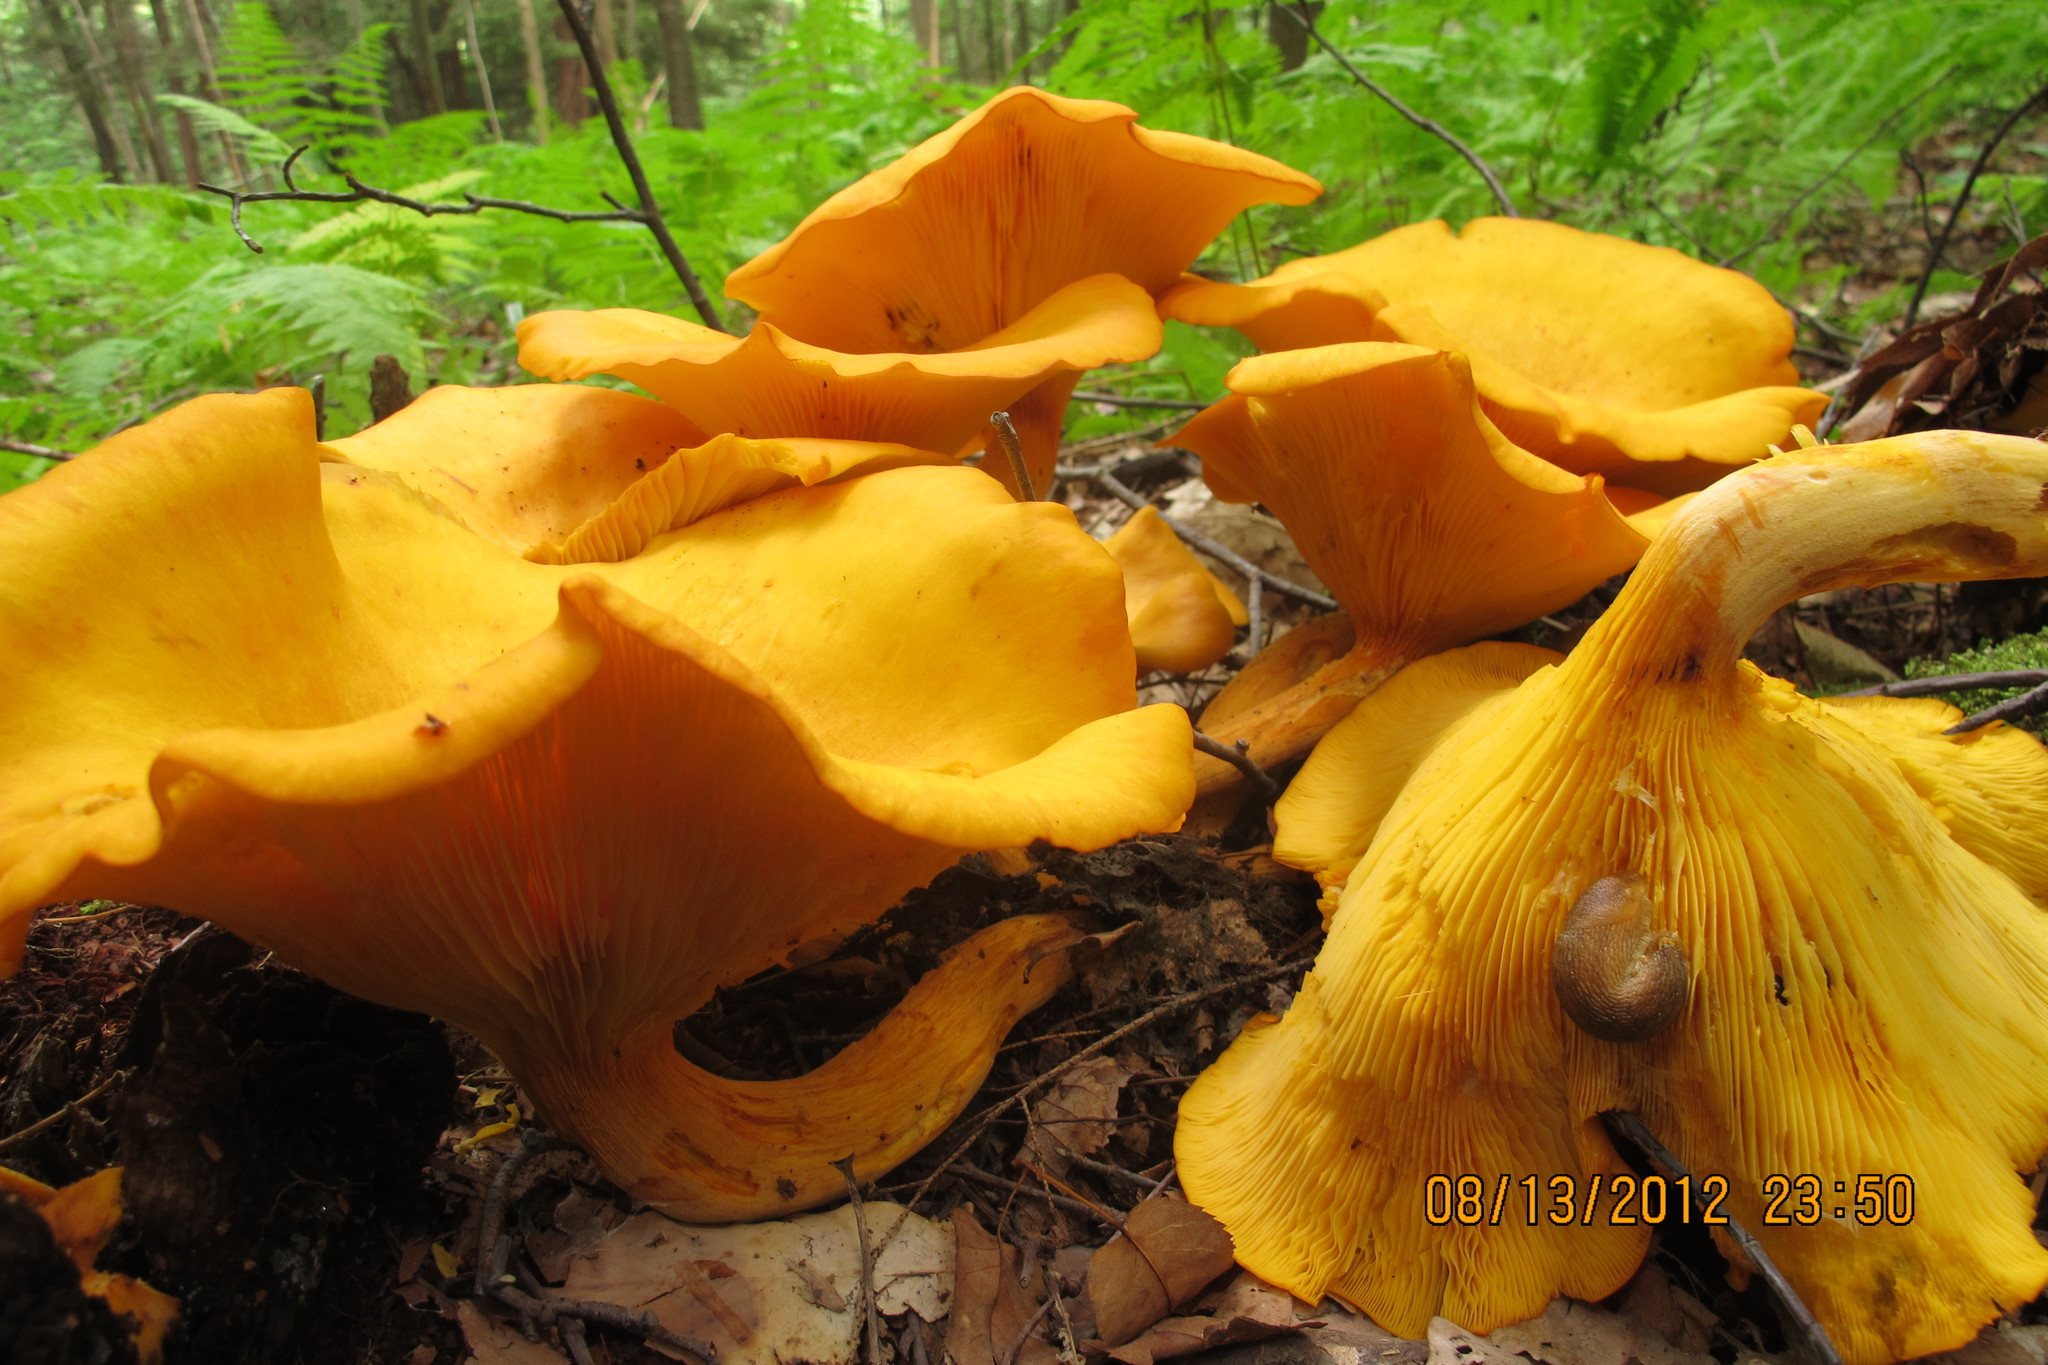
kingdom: Fungi
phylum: Basidiomycota
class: Agaricomycetes
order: Agaricales
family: Omphalotaceae
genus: Omphalotus
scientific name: Omphalotus illudens
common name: Jack o lantern
